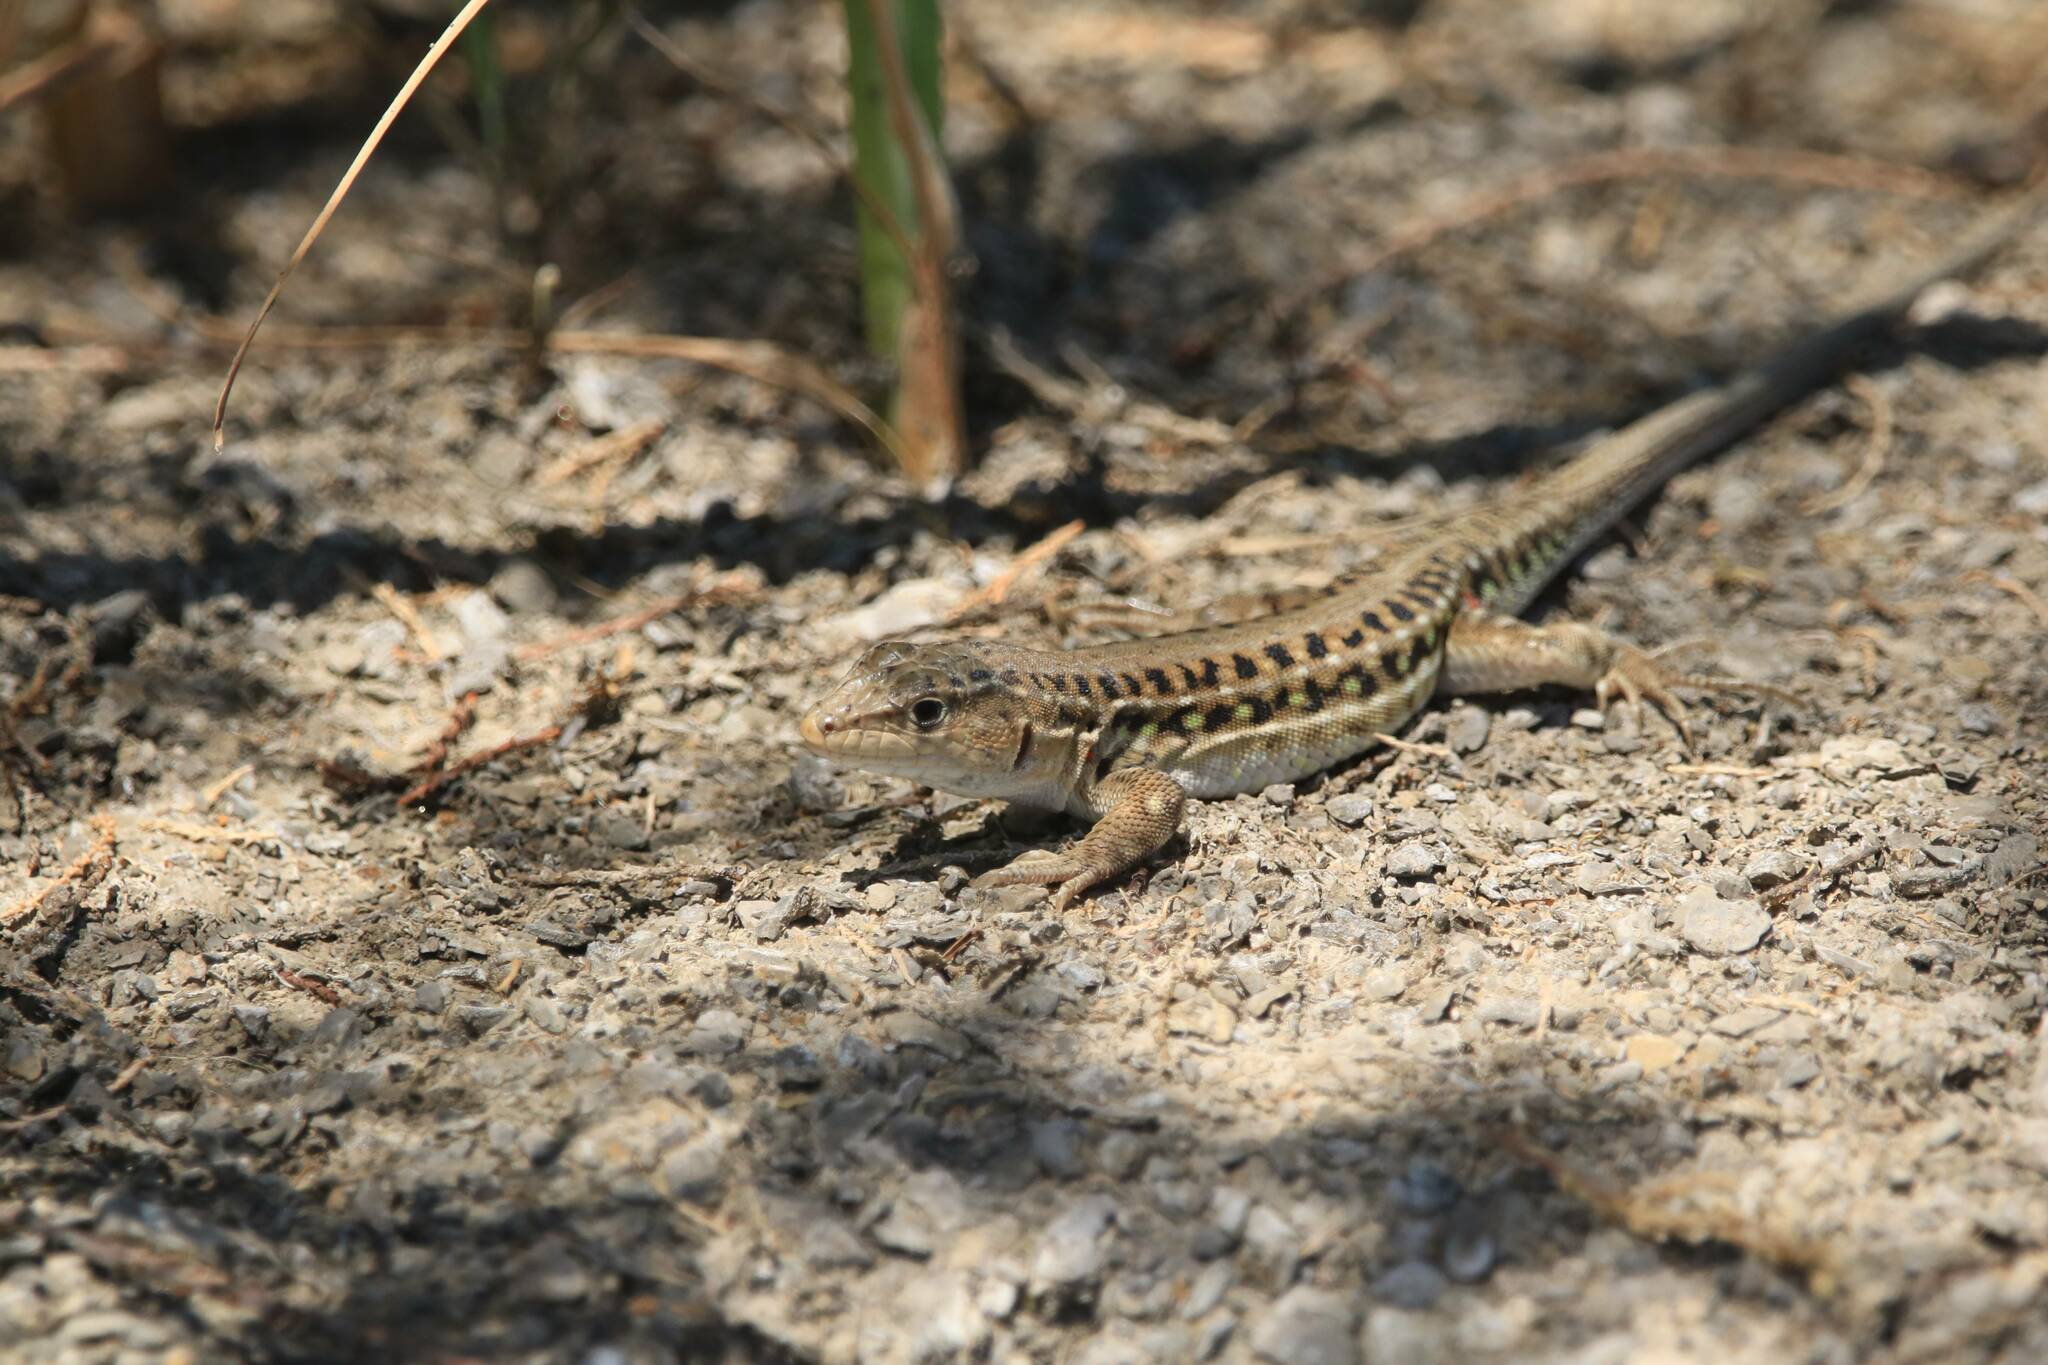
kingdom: Animalia
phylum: Chordata
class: Squamata
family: Lacertidae
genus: Acanthodactylus
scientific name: Acanthodactylus erythrurus
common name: Spiny-footed lizard
